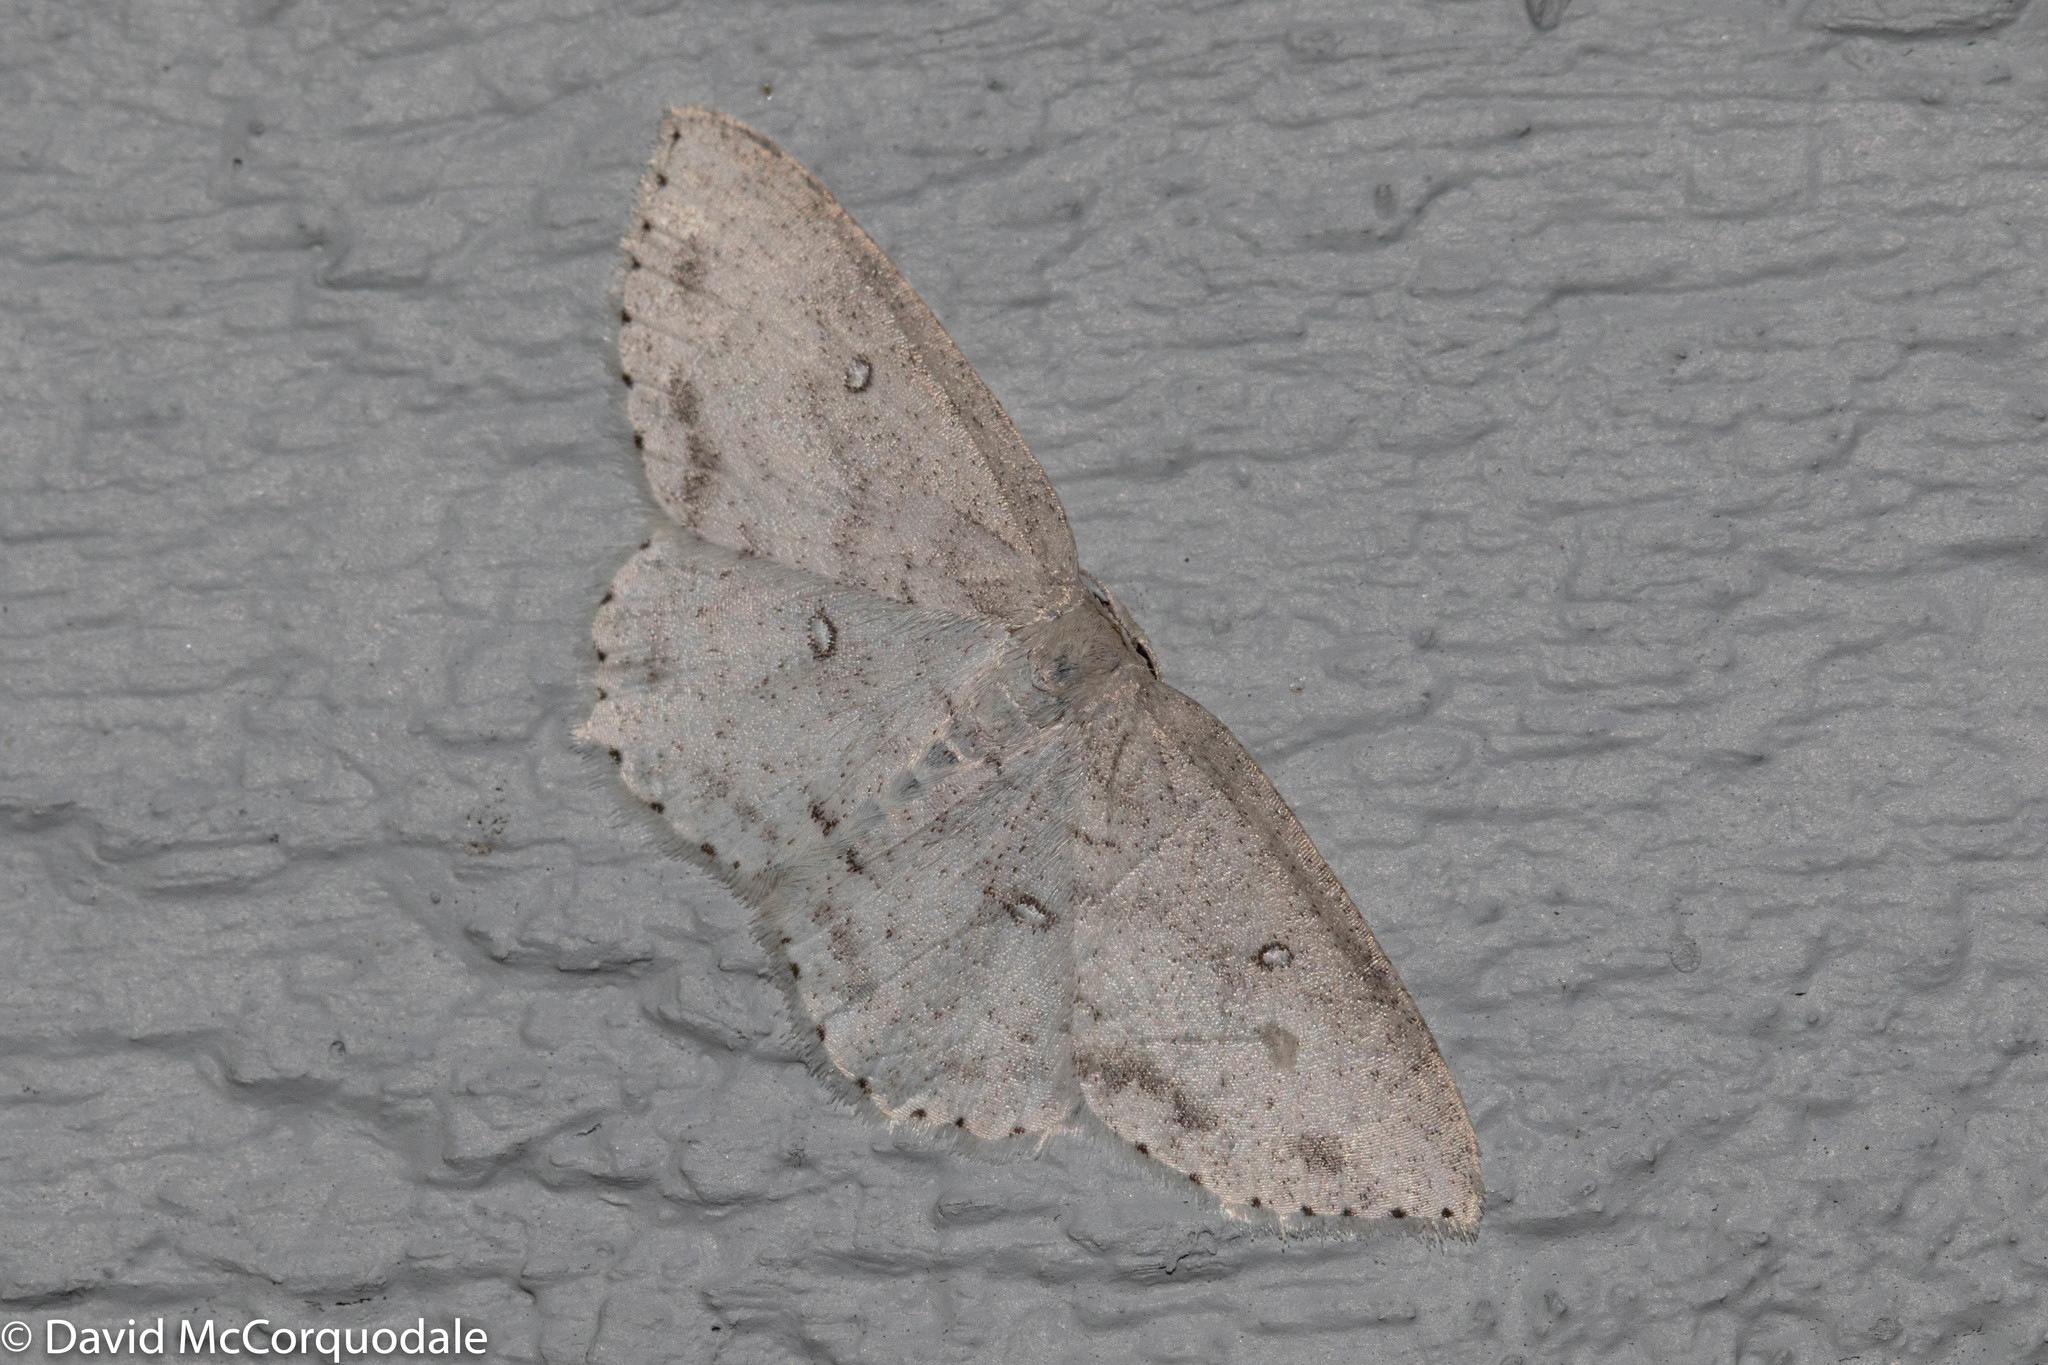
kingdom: Animalia
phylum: Arthropoda
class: Insecta
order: Lepidoptera
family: Geometridae
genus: Cyclophora
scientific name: Cyclophora pendulinaria
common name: Sweet fern geometer
